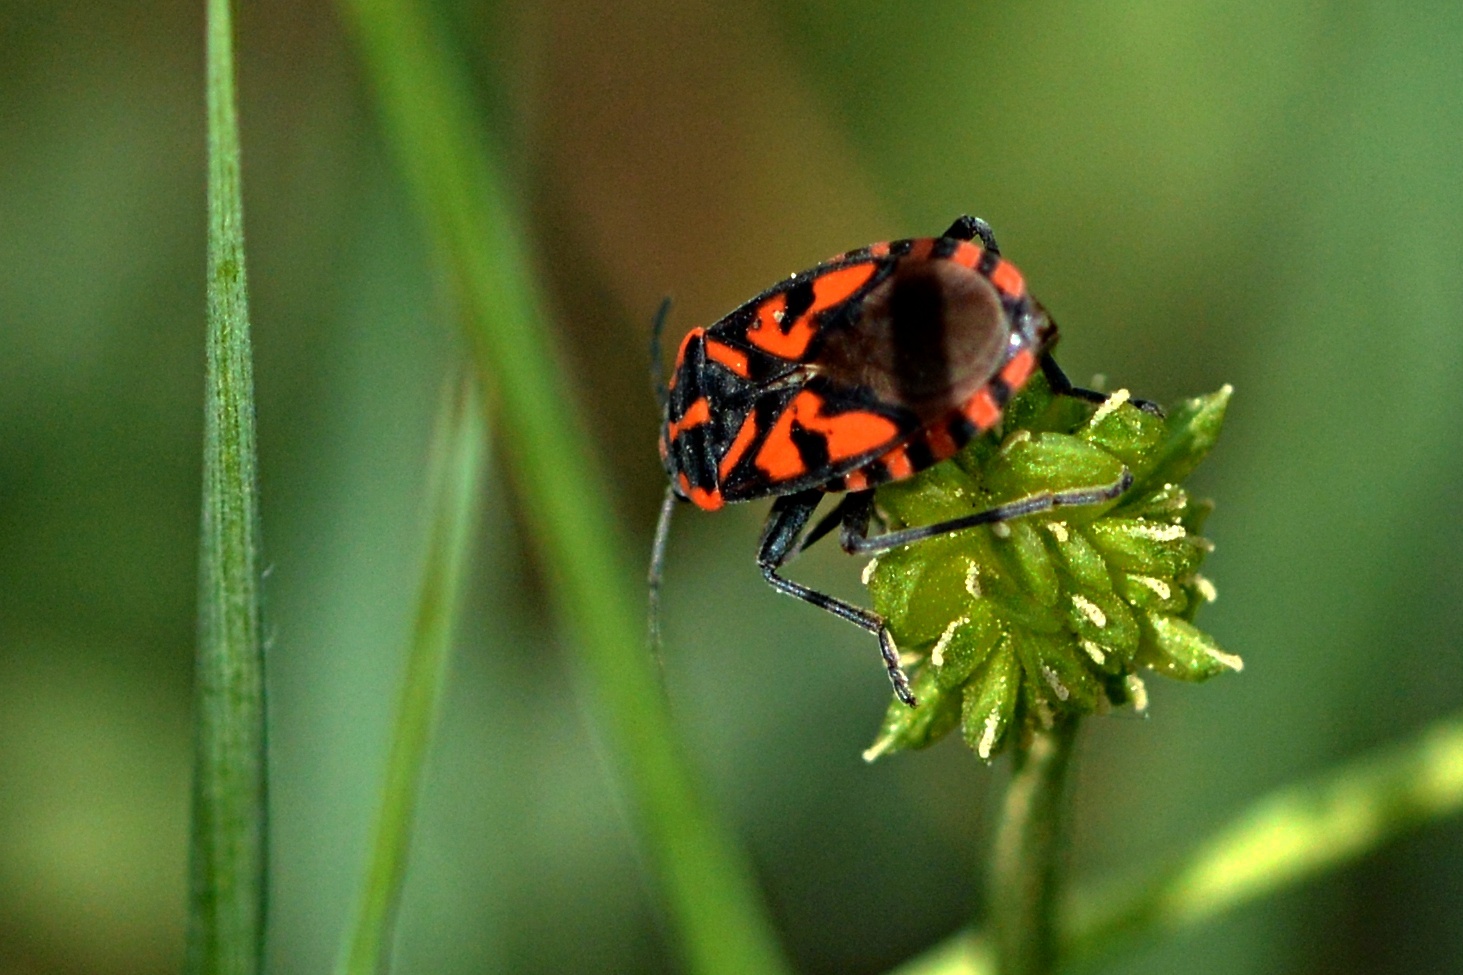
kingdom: Animalia
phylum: Arthropoda
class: Insecta
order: Hemiptera
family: Lygaeidae
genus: Spilostethus
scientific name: Spilostethus saxatilis
